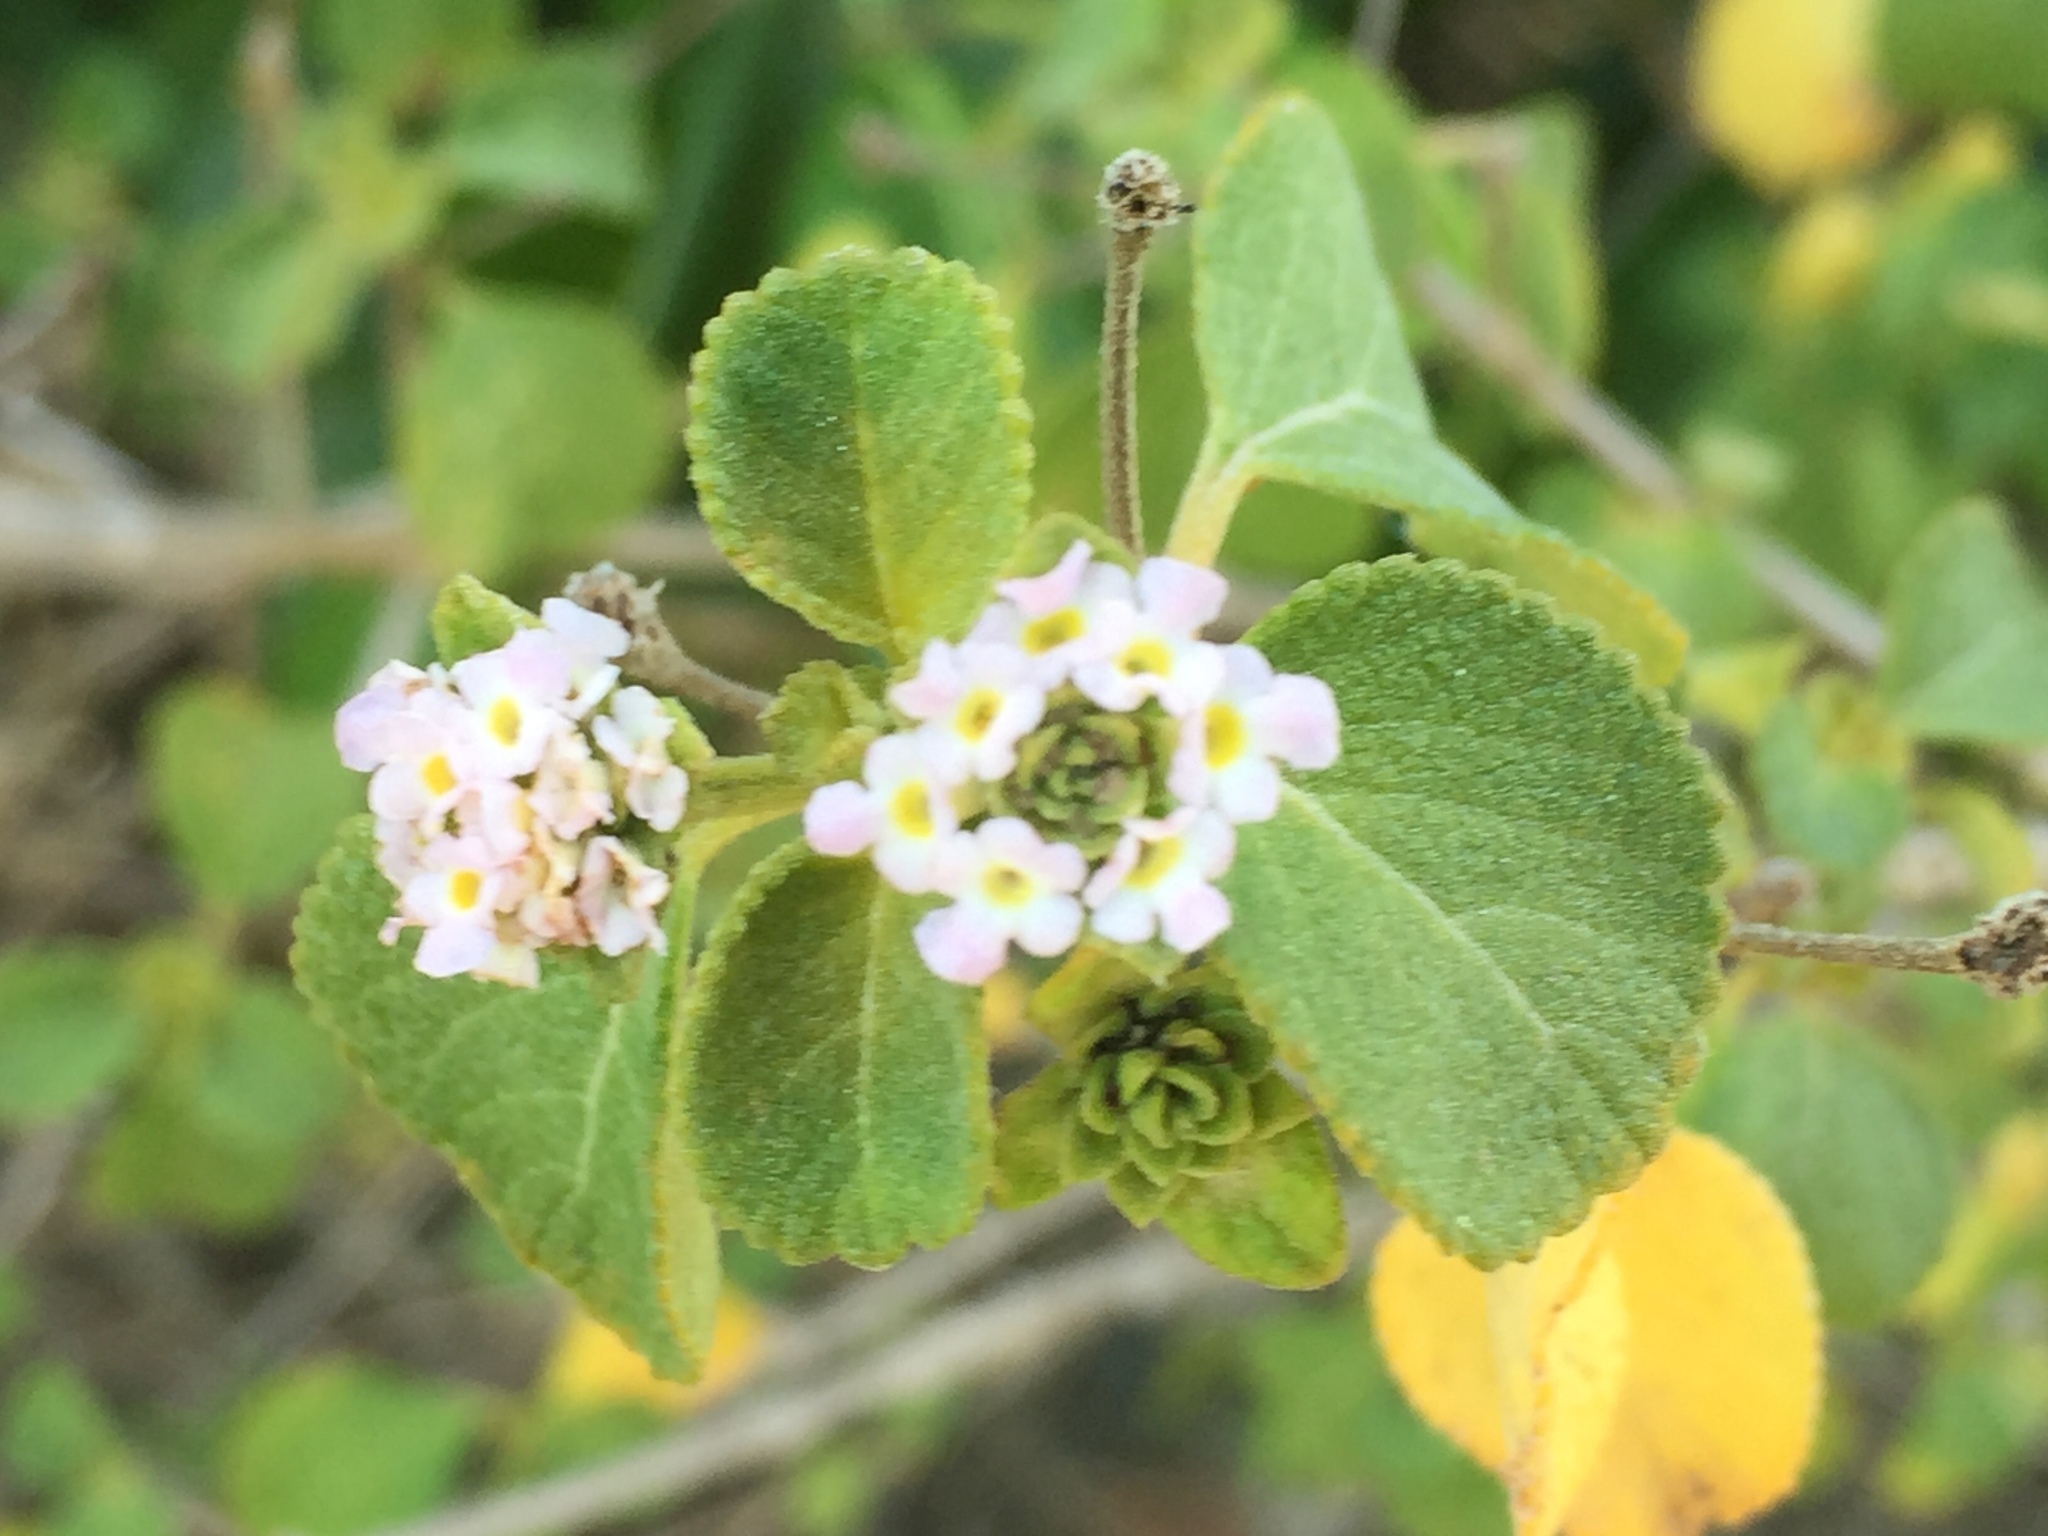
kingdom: Plantae
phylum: Tracheophyta
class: Magnoliopsida
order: Lamiales
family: Verbenaceae
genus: Lantana
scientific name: Lantana involucrata
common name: Black sage
